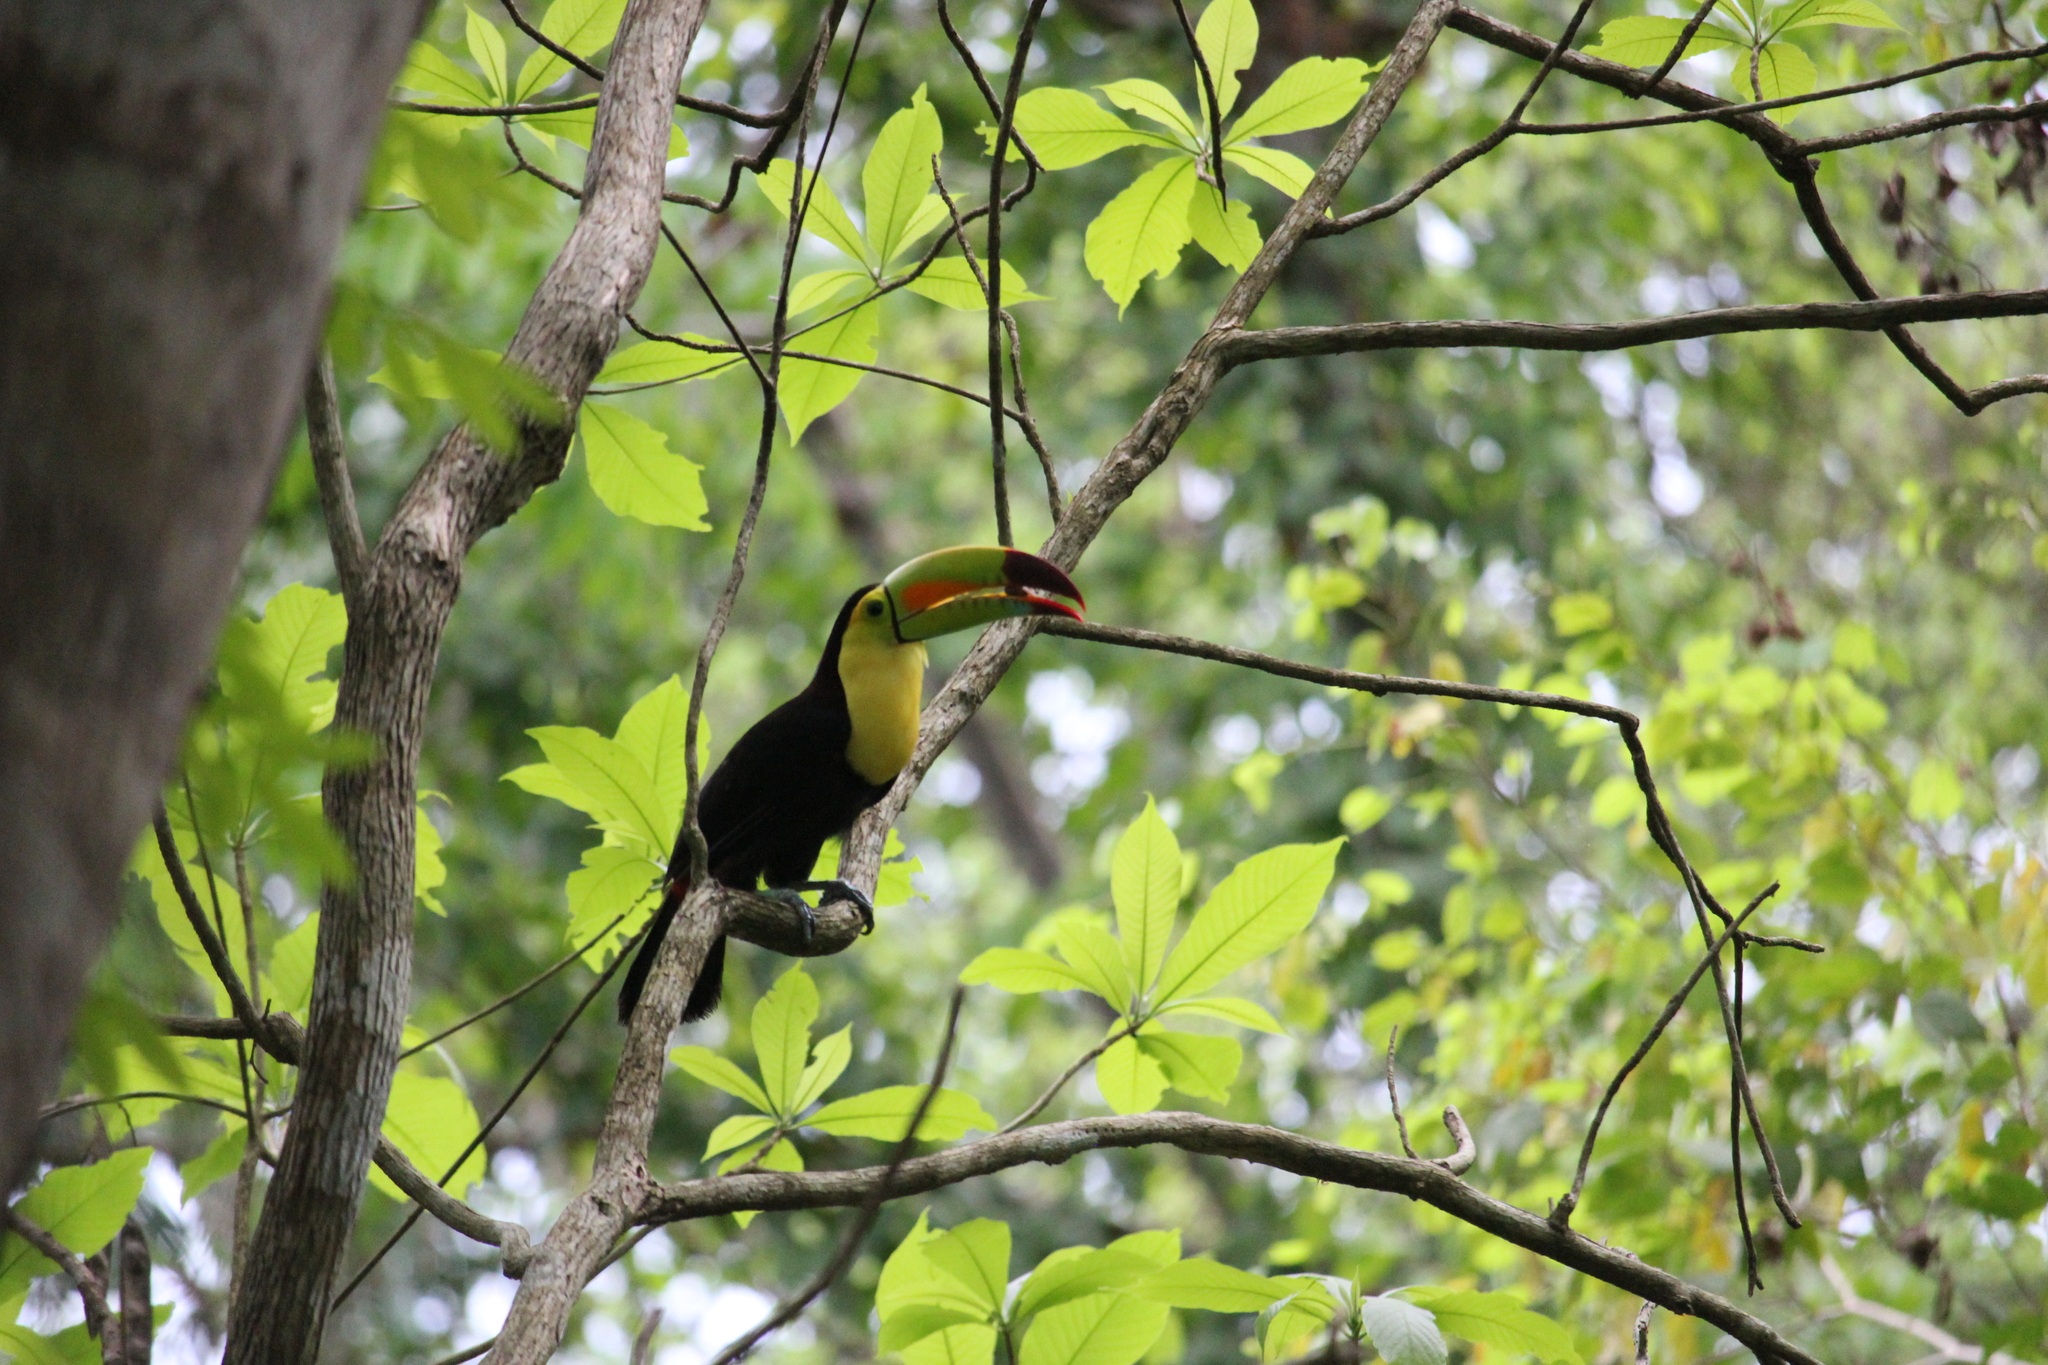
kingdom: Animalia
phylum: Chordata
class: Aves
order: Piciformes
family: Ramphastidae
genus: Ramphastos
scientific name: Ramphastos sulfuratus
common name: Keel-billed toucan
